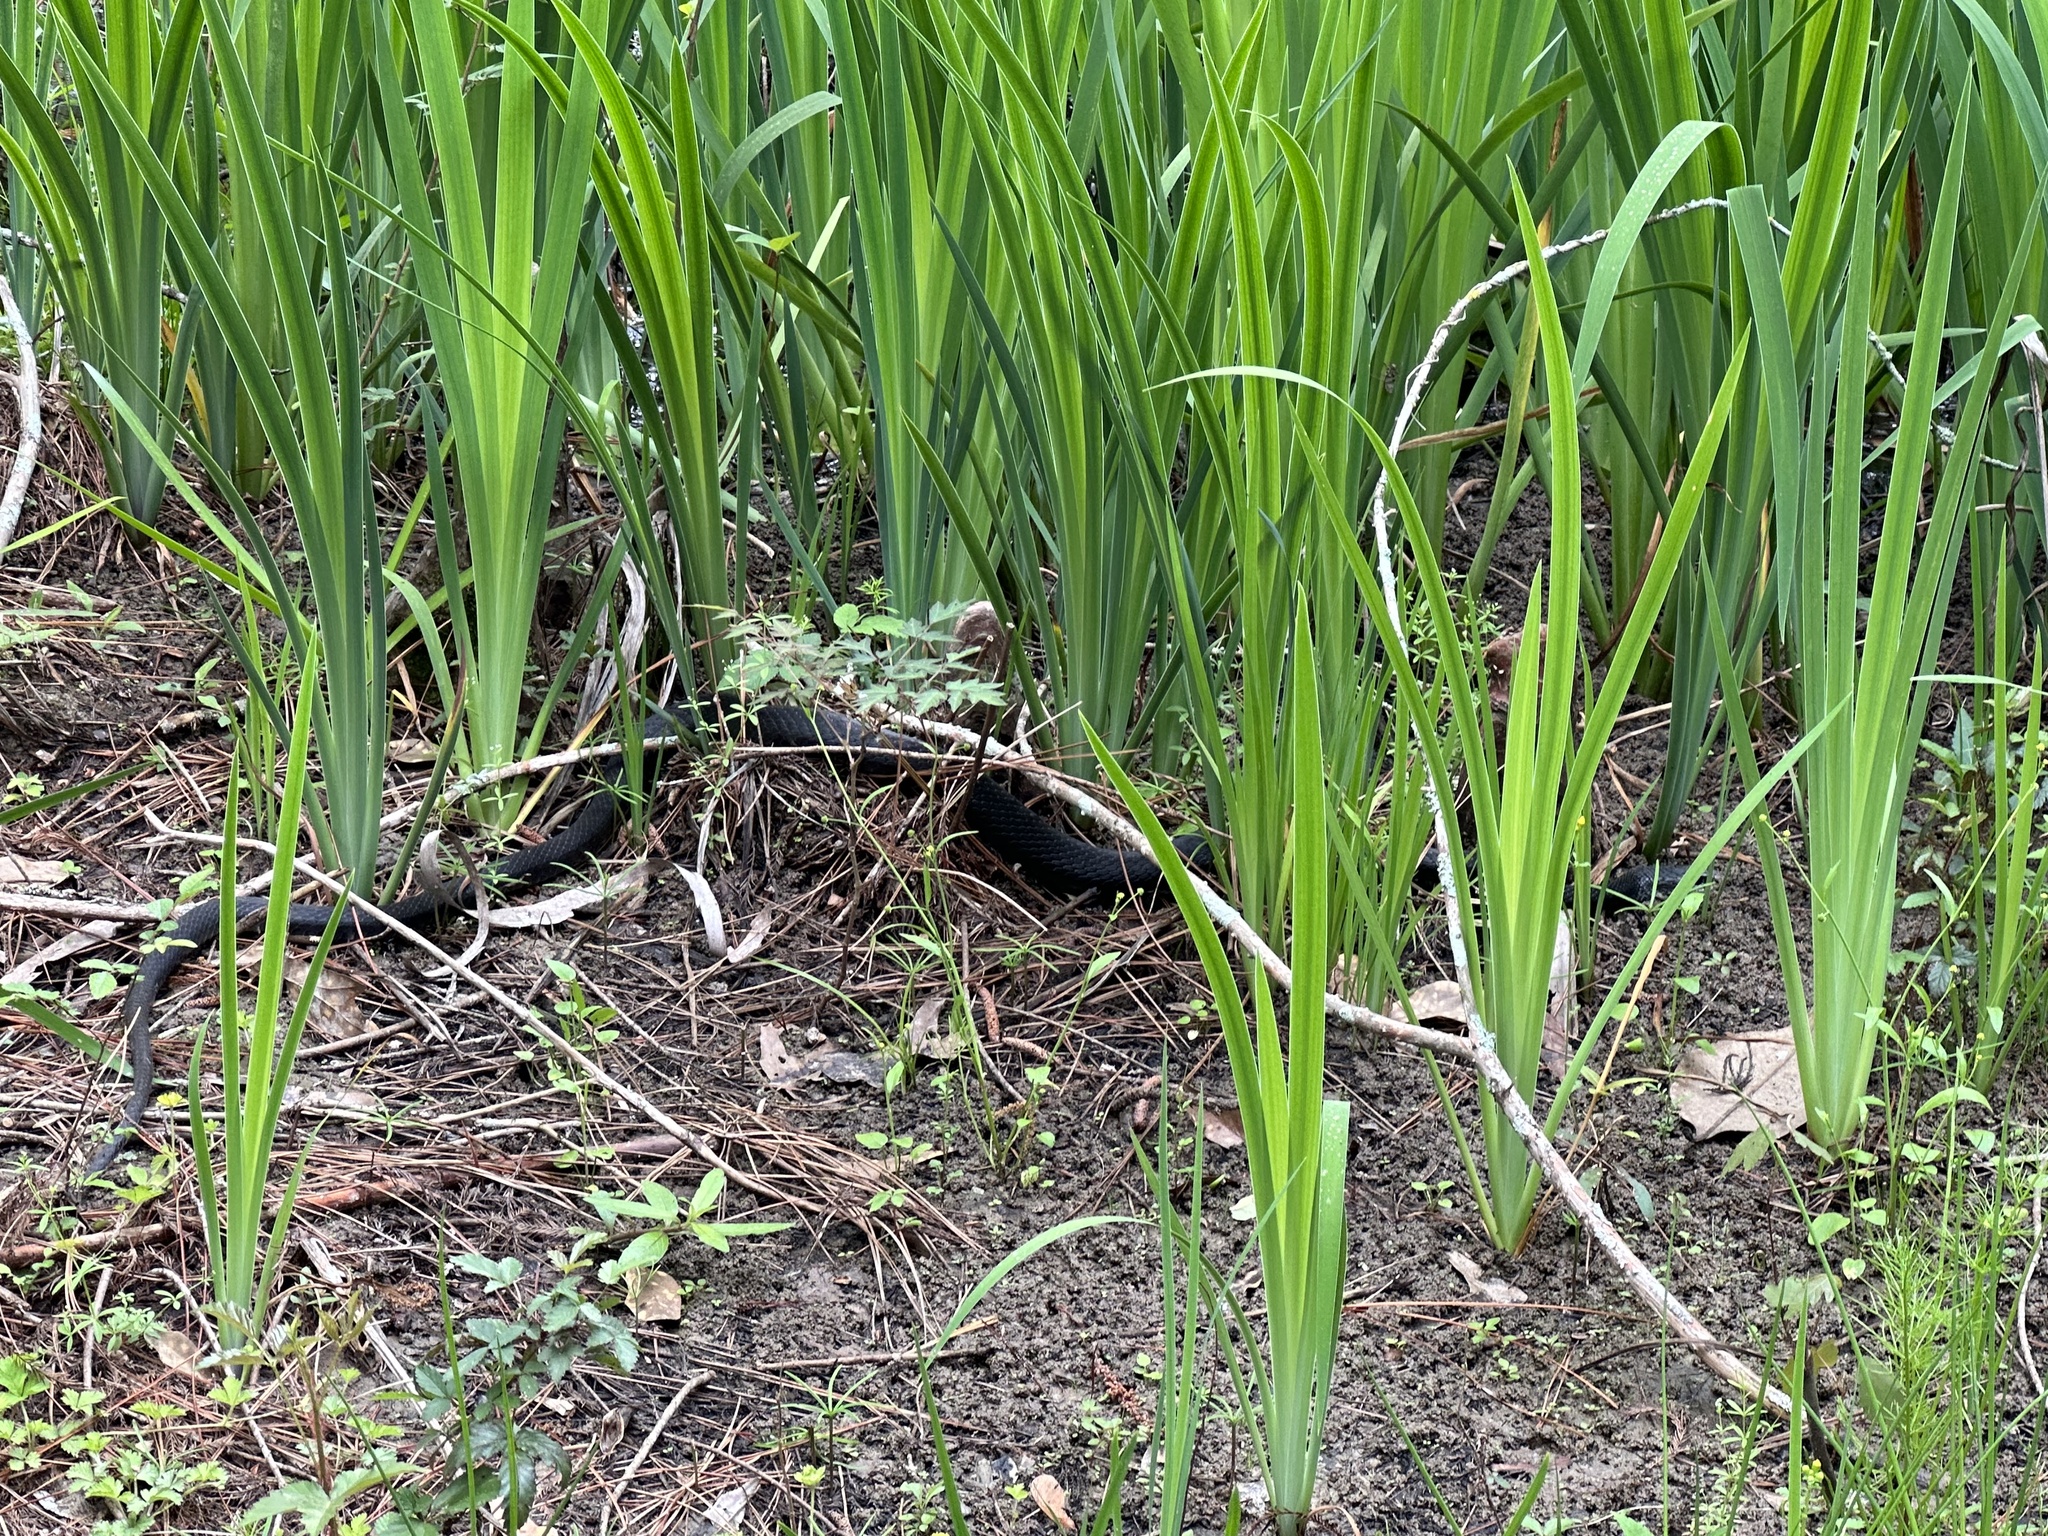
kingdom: Animalia
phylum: Chordata
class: Squamata
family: Colubridae
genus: Coluber
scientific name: Coluber constrictor
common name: Eastern racer
